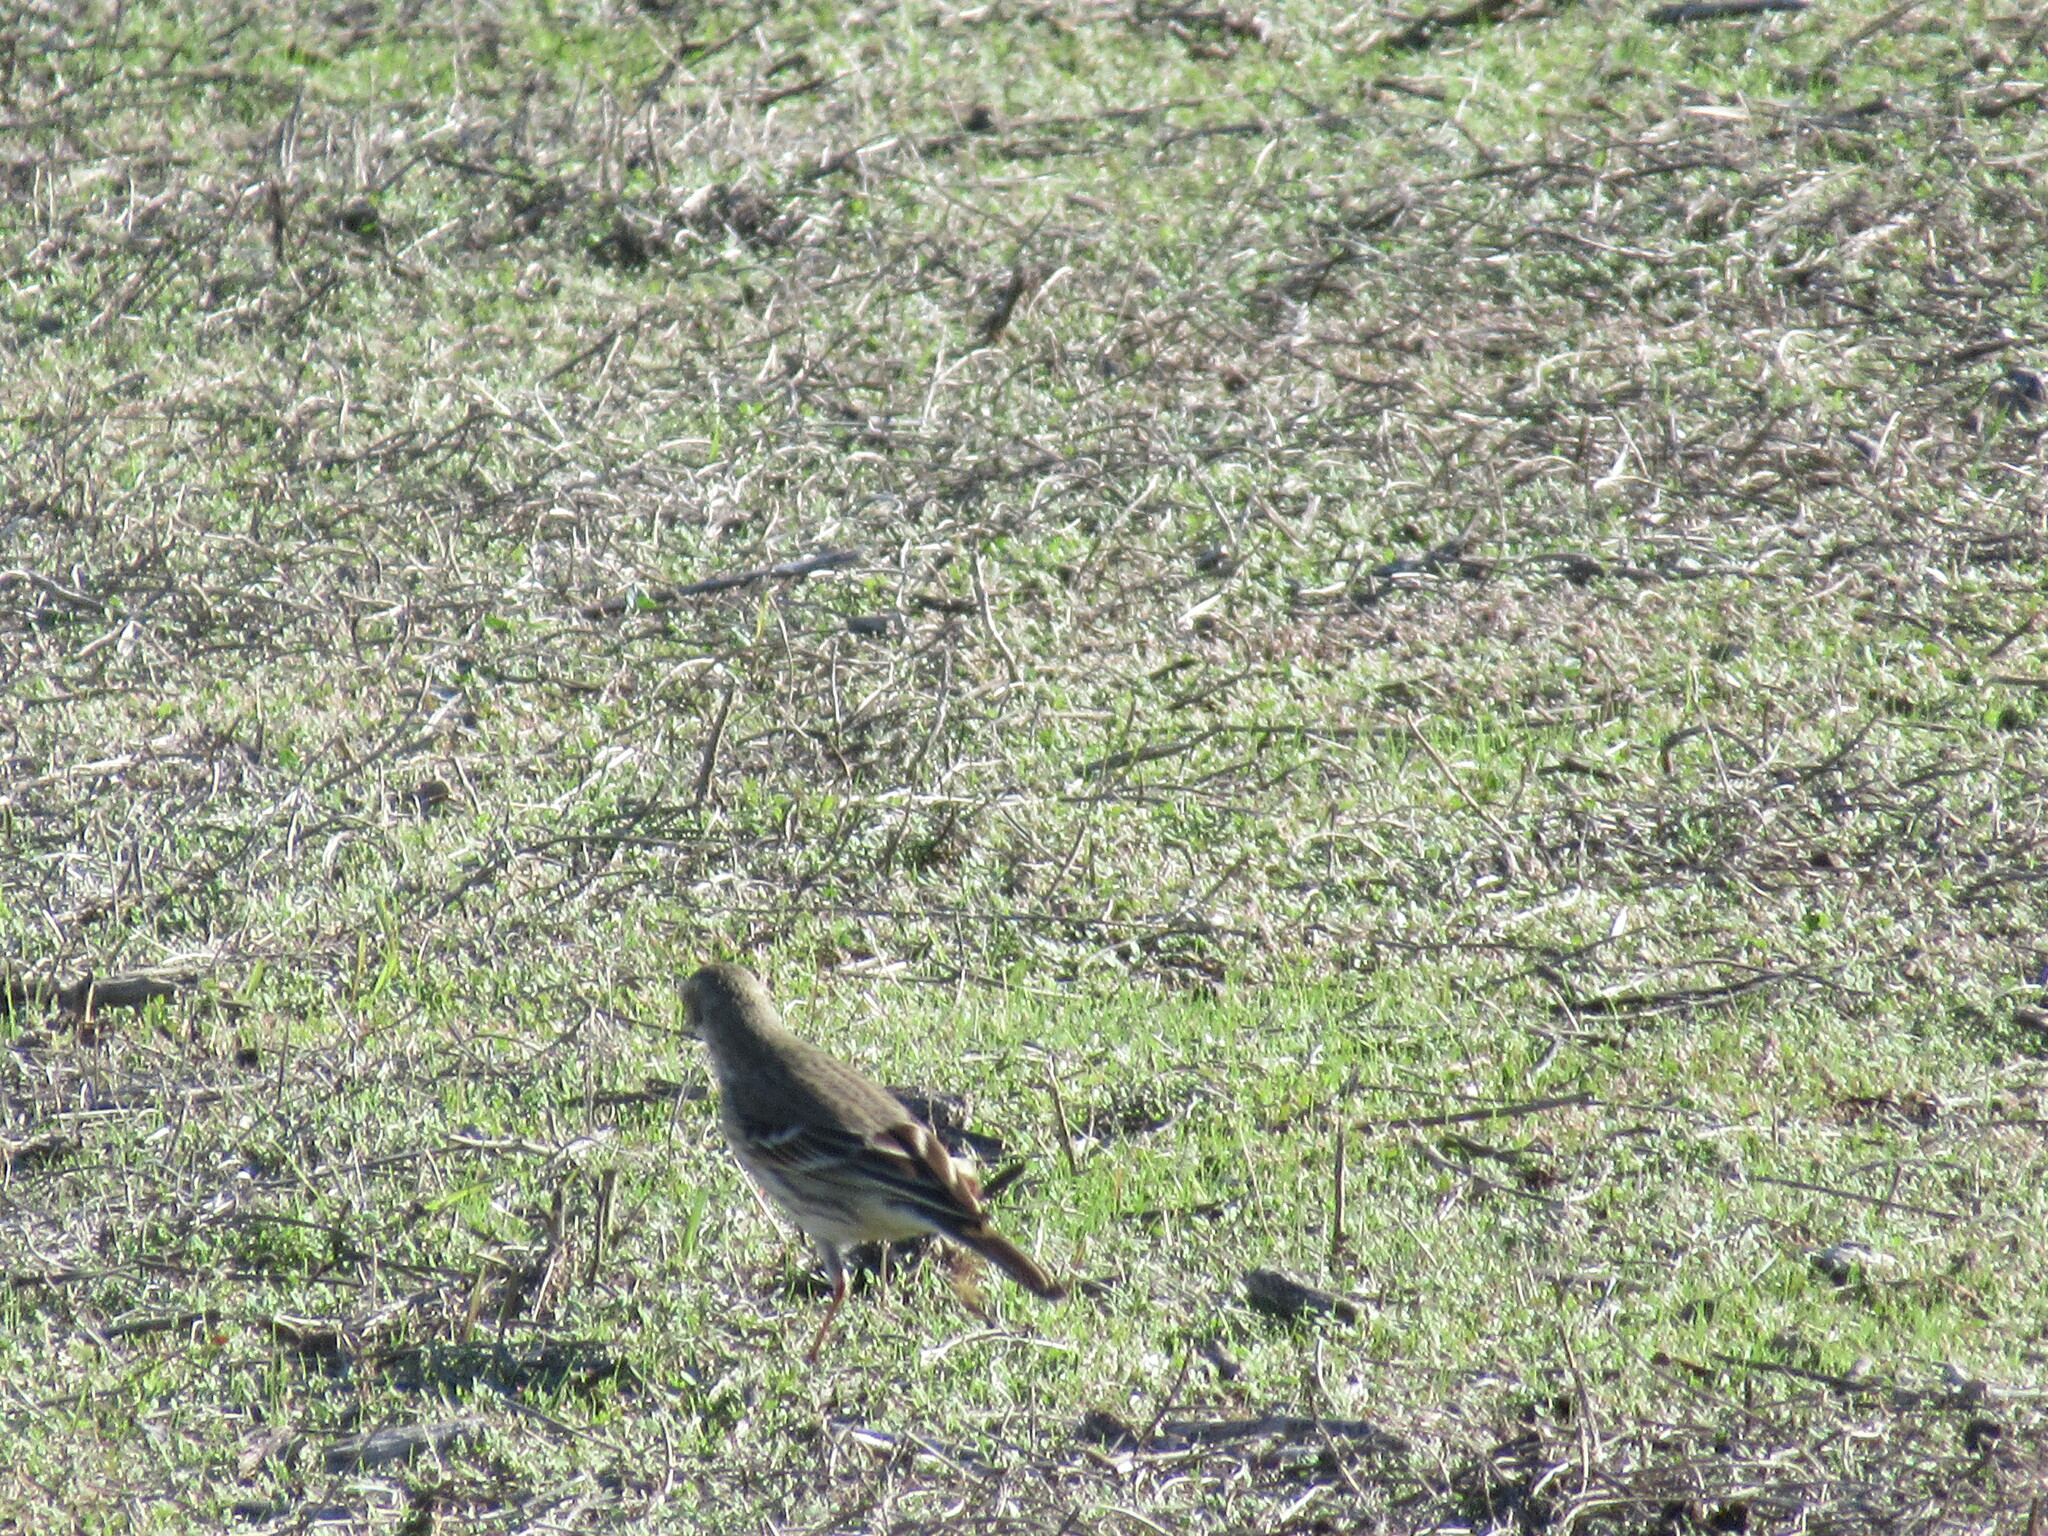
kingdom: Animalia
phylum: Chordata
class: Aves
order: Passeriformes
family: Motacillidae
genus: Anthus
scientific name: Anthus rubescens
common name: Buff-bellied pipit
